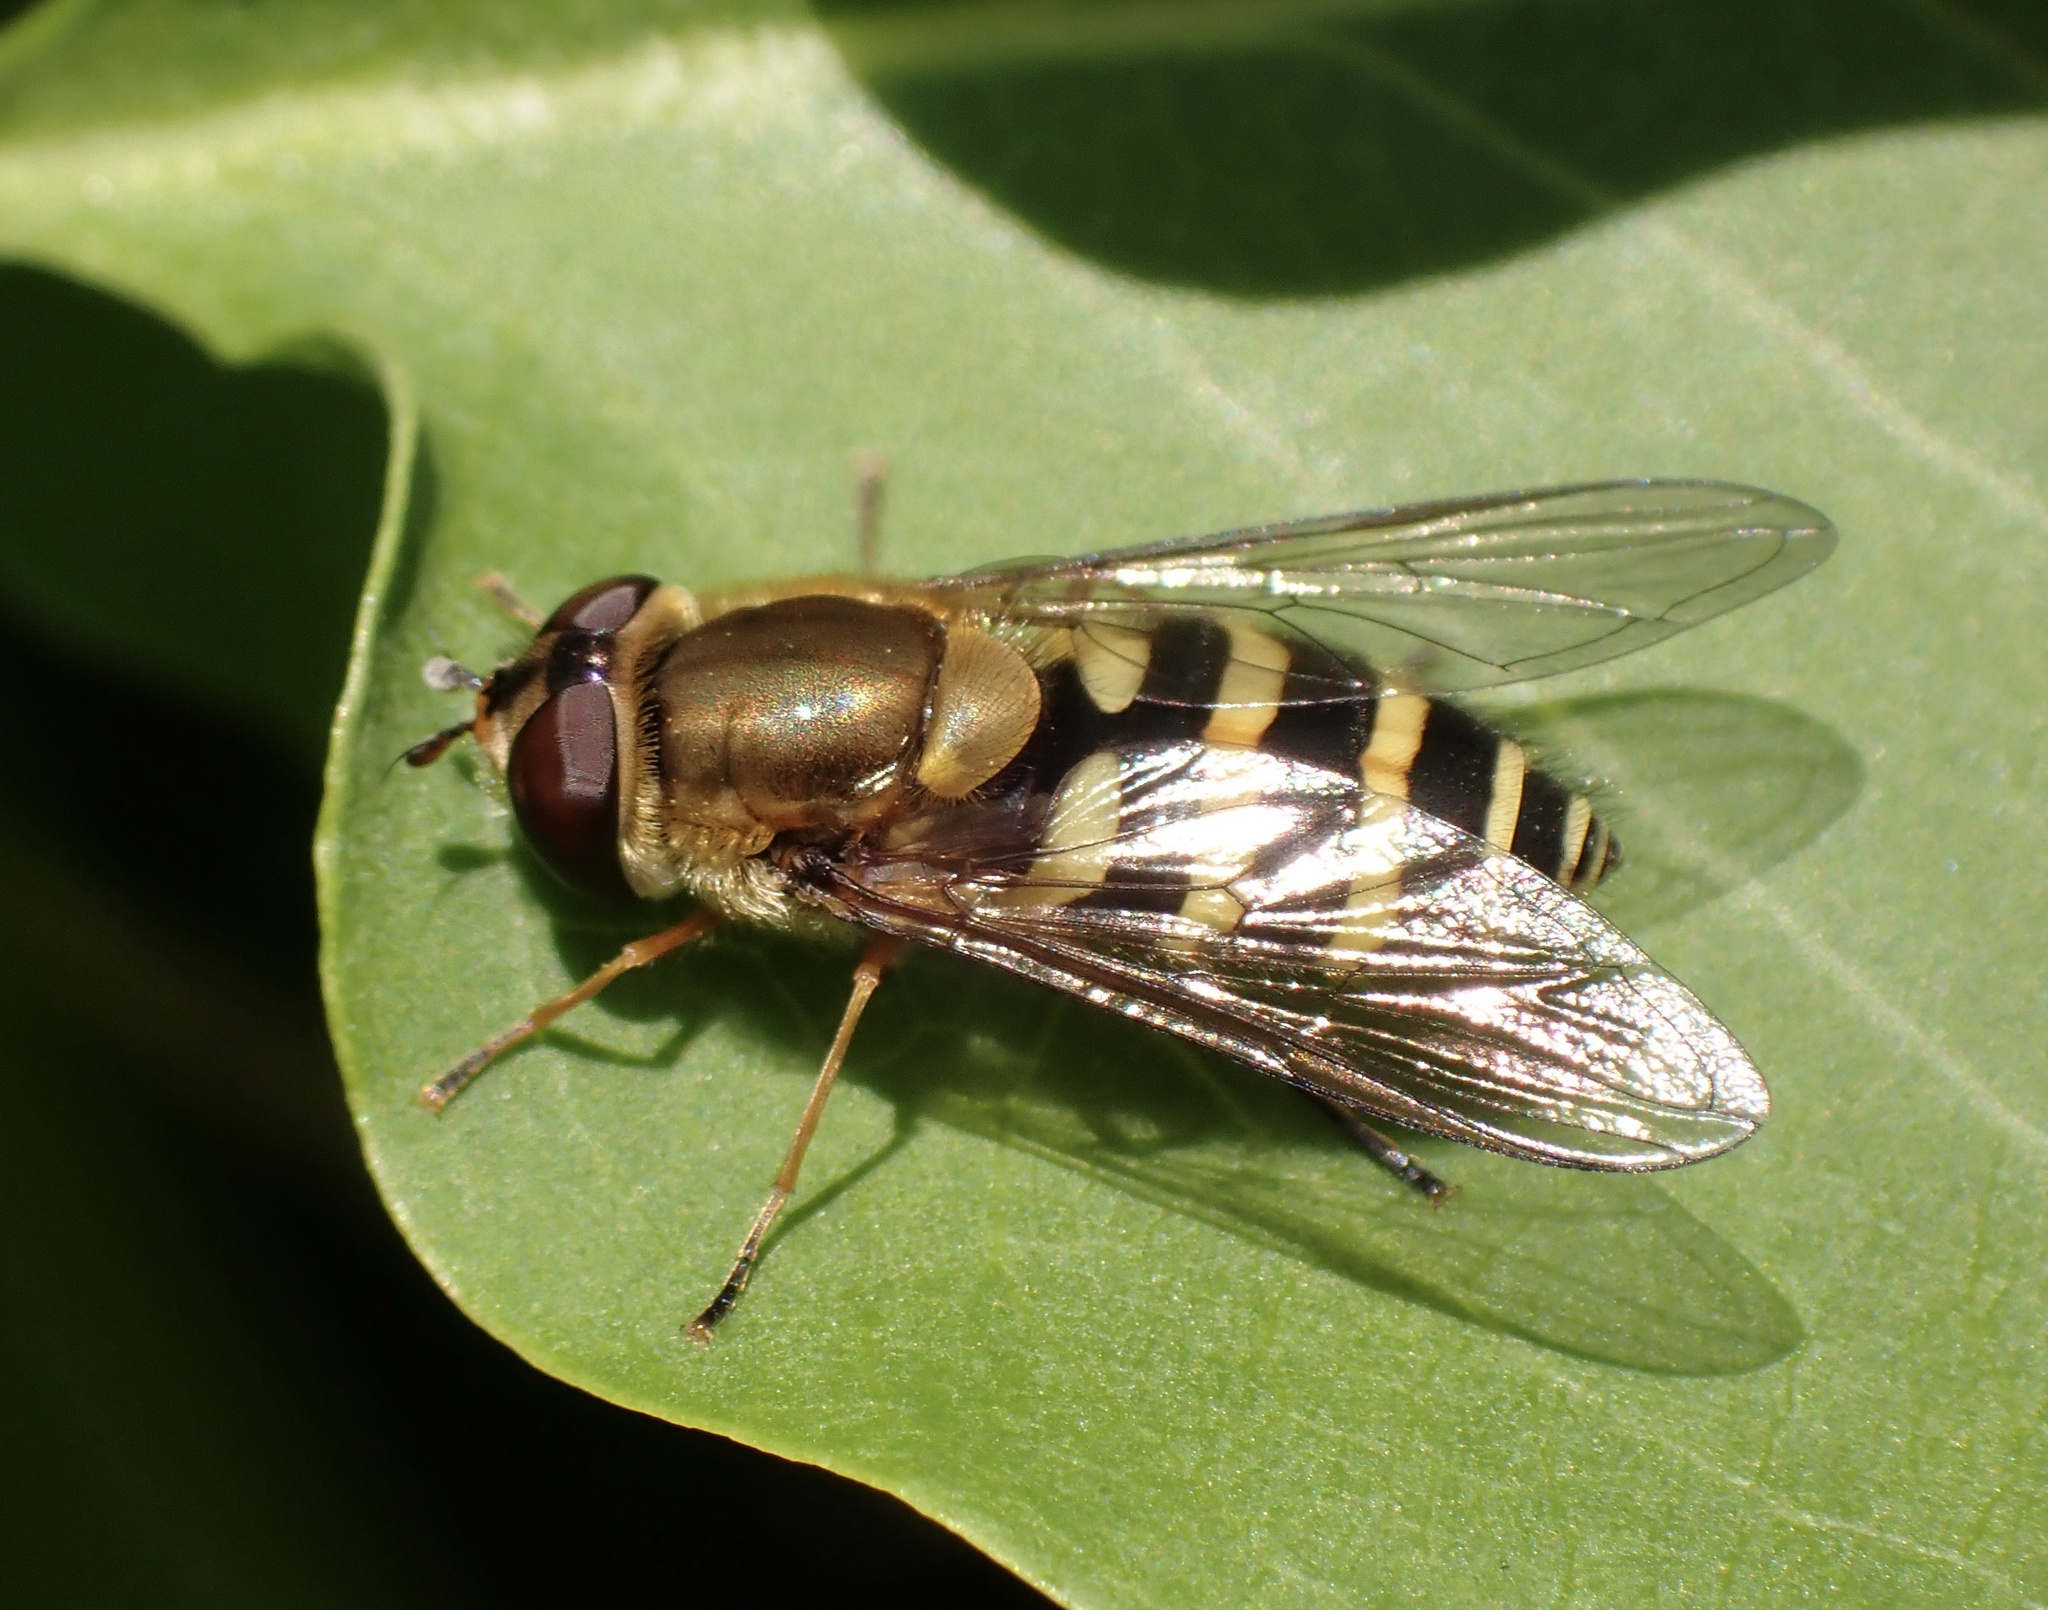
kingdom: Animalia
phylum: Arthropoda
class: Insecta
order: Diptera
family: Syrphidae
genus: Syrphus
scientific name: Syrphus
